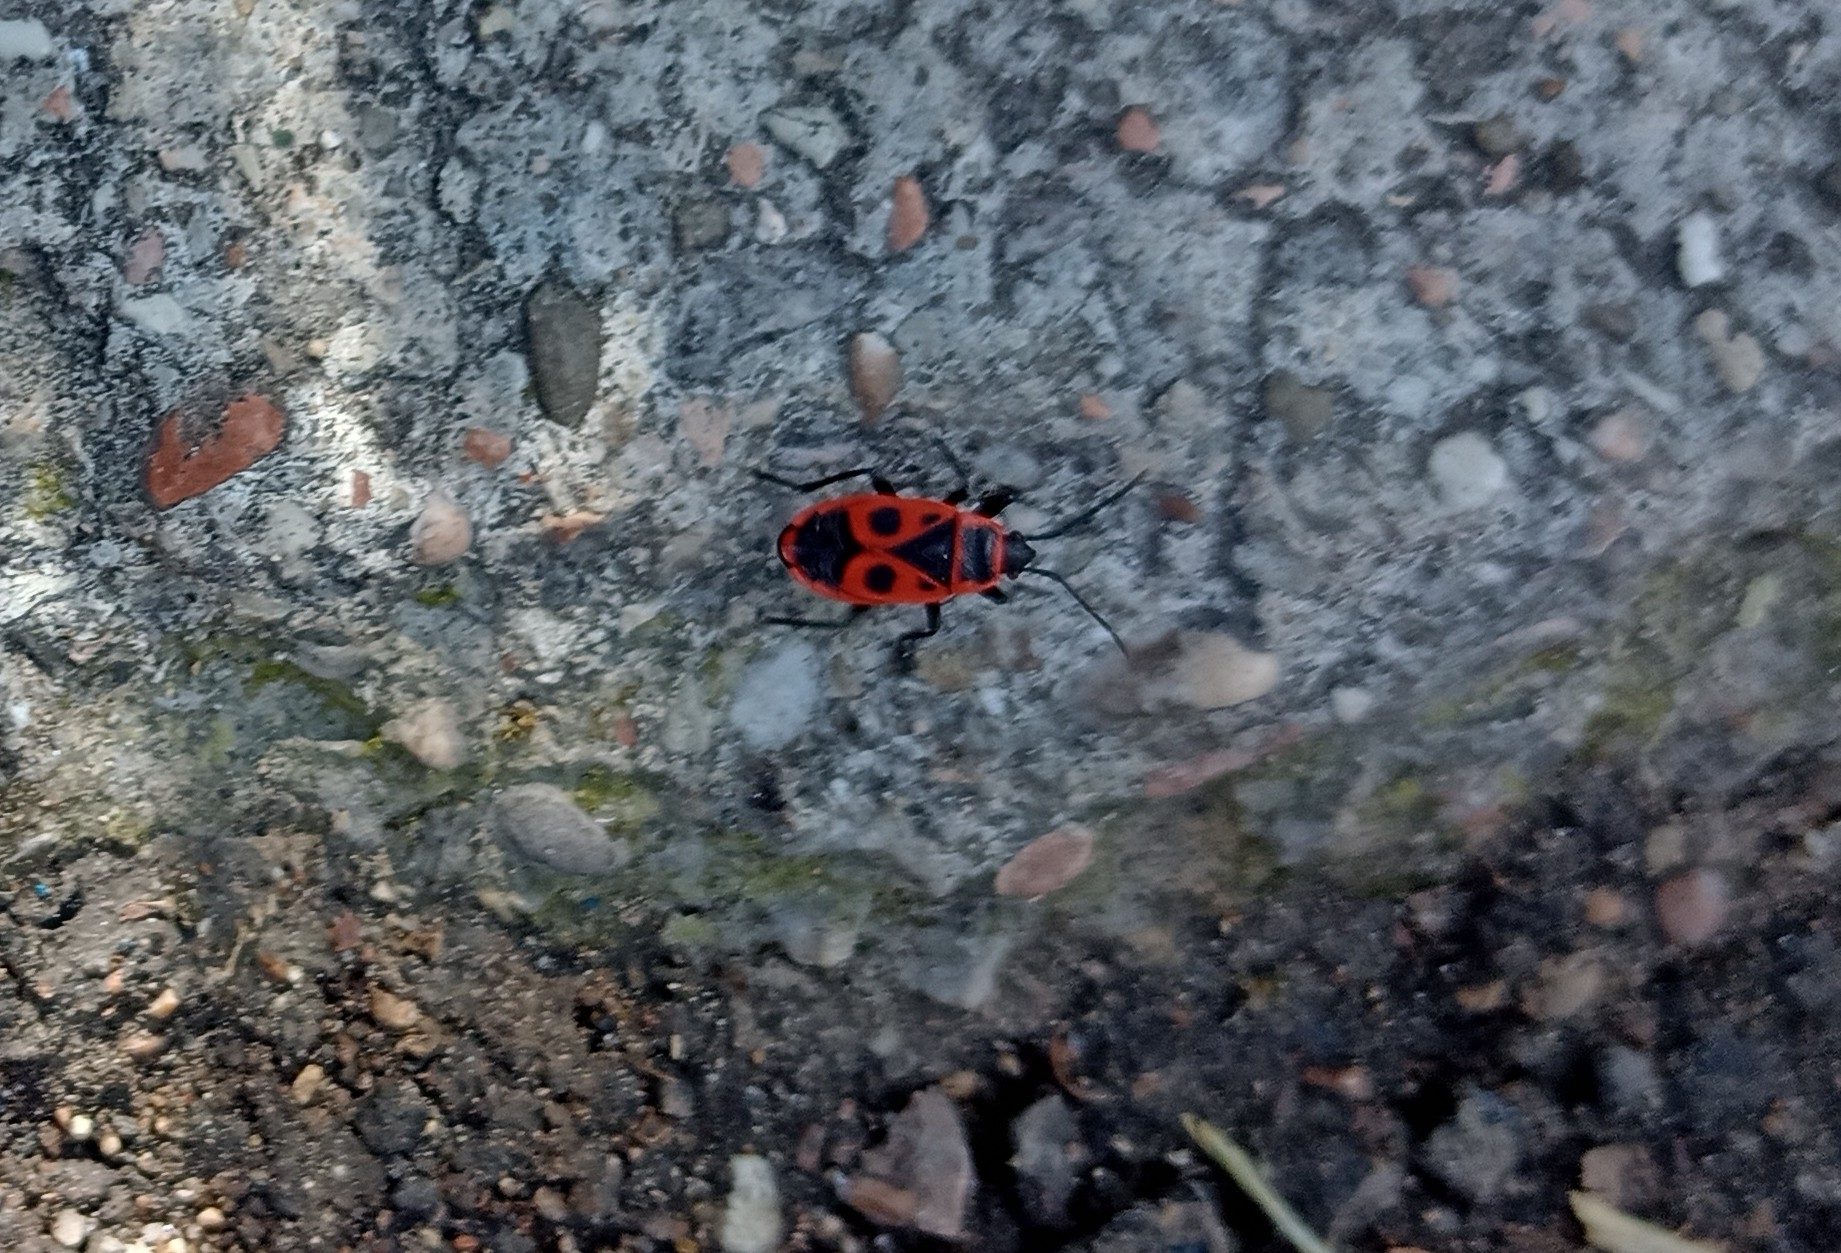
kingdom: Animalia
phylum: Arthropoda
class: Insecta
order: Hemiptera
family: Pyrrhocoridae
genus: Pyrrhocoris
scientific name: Pyrrhocoris apterus
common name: Firebug
